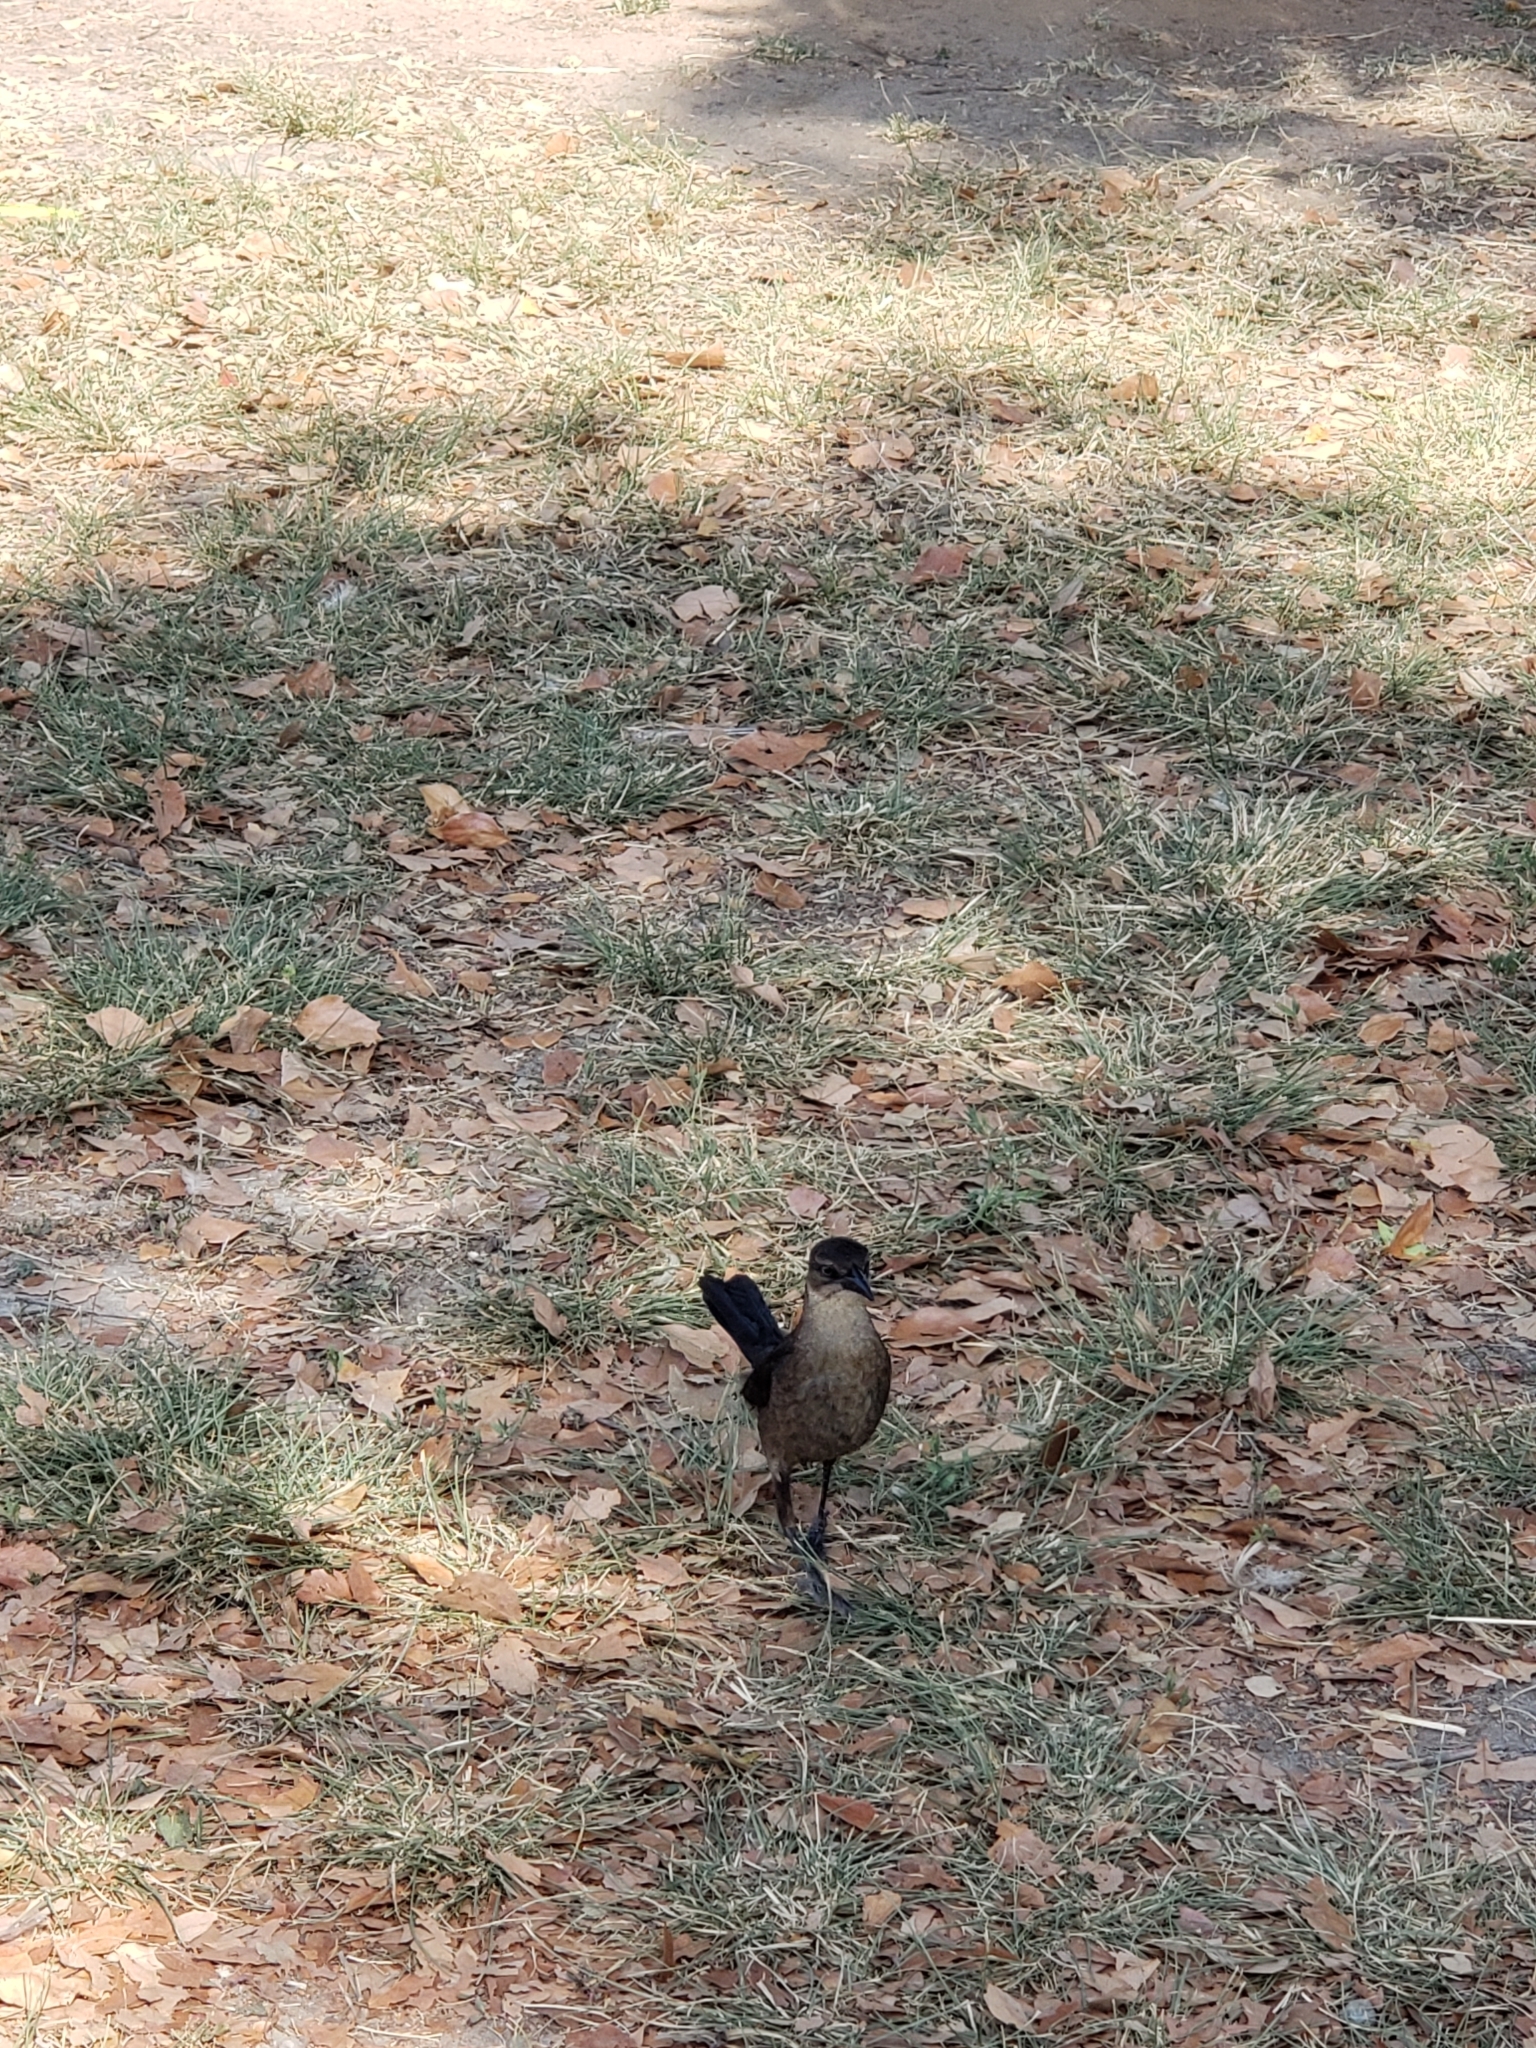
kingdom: Animalia
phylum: Chordata
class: Aves
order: Passeriformes
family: Icteridae
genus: Quiscalus
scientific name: Quiscalus mexicanus
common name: Great-tailed grackle
